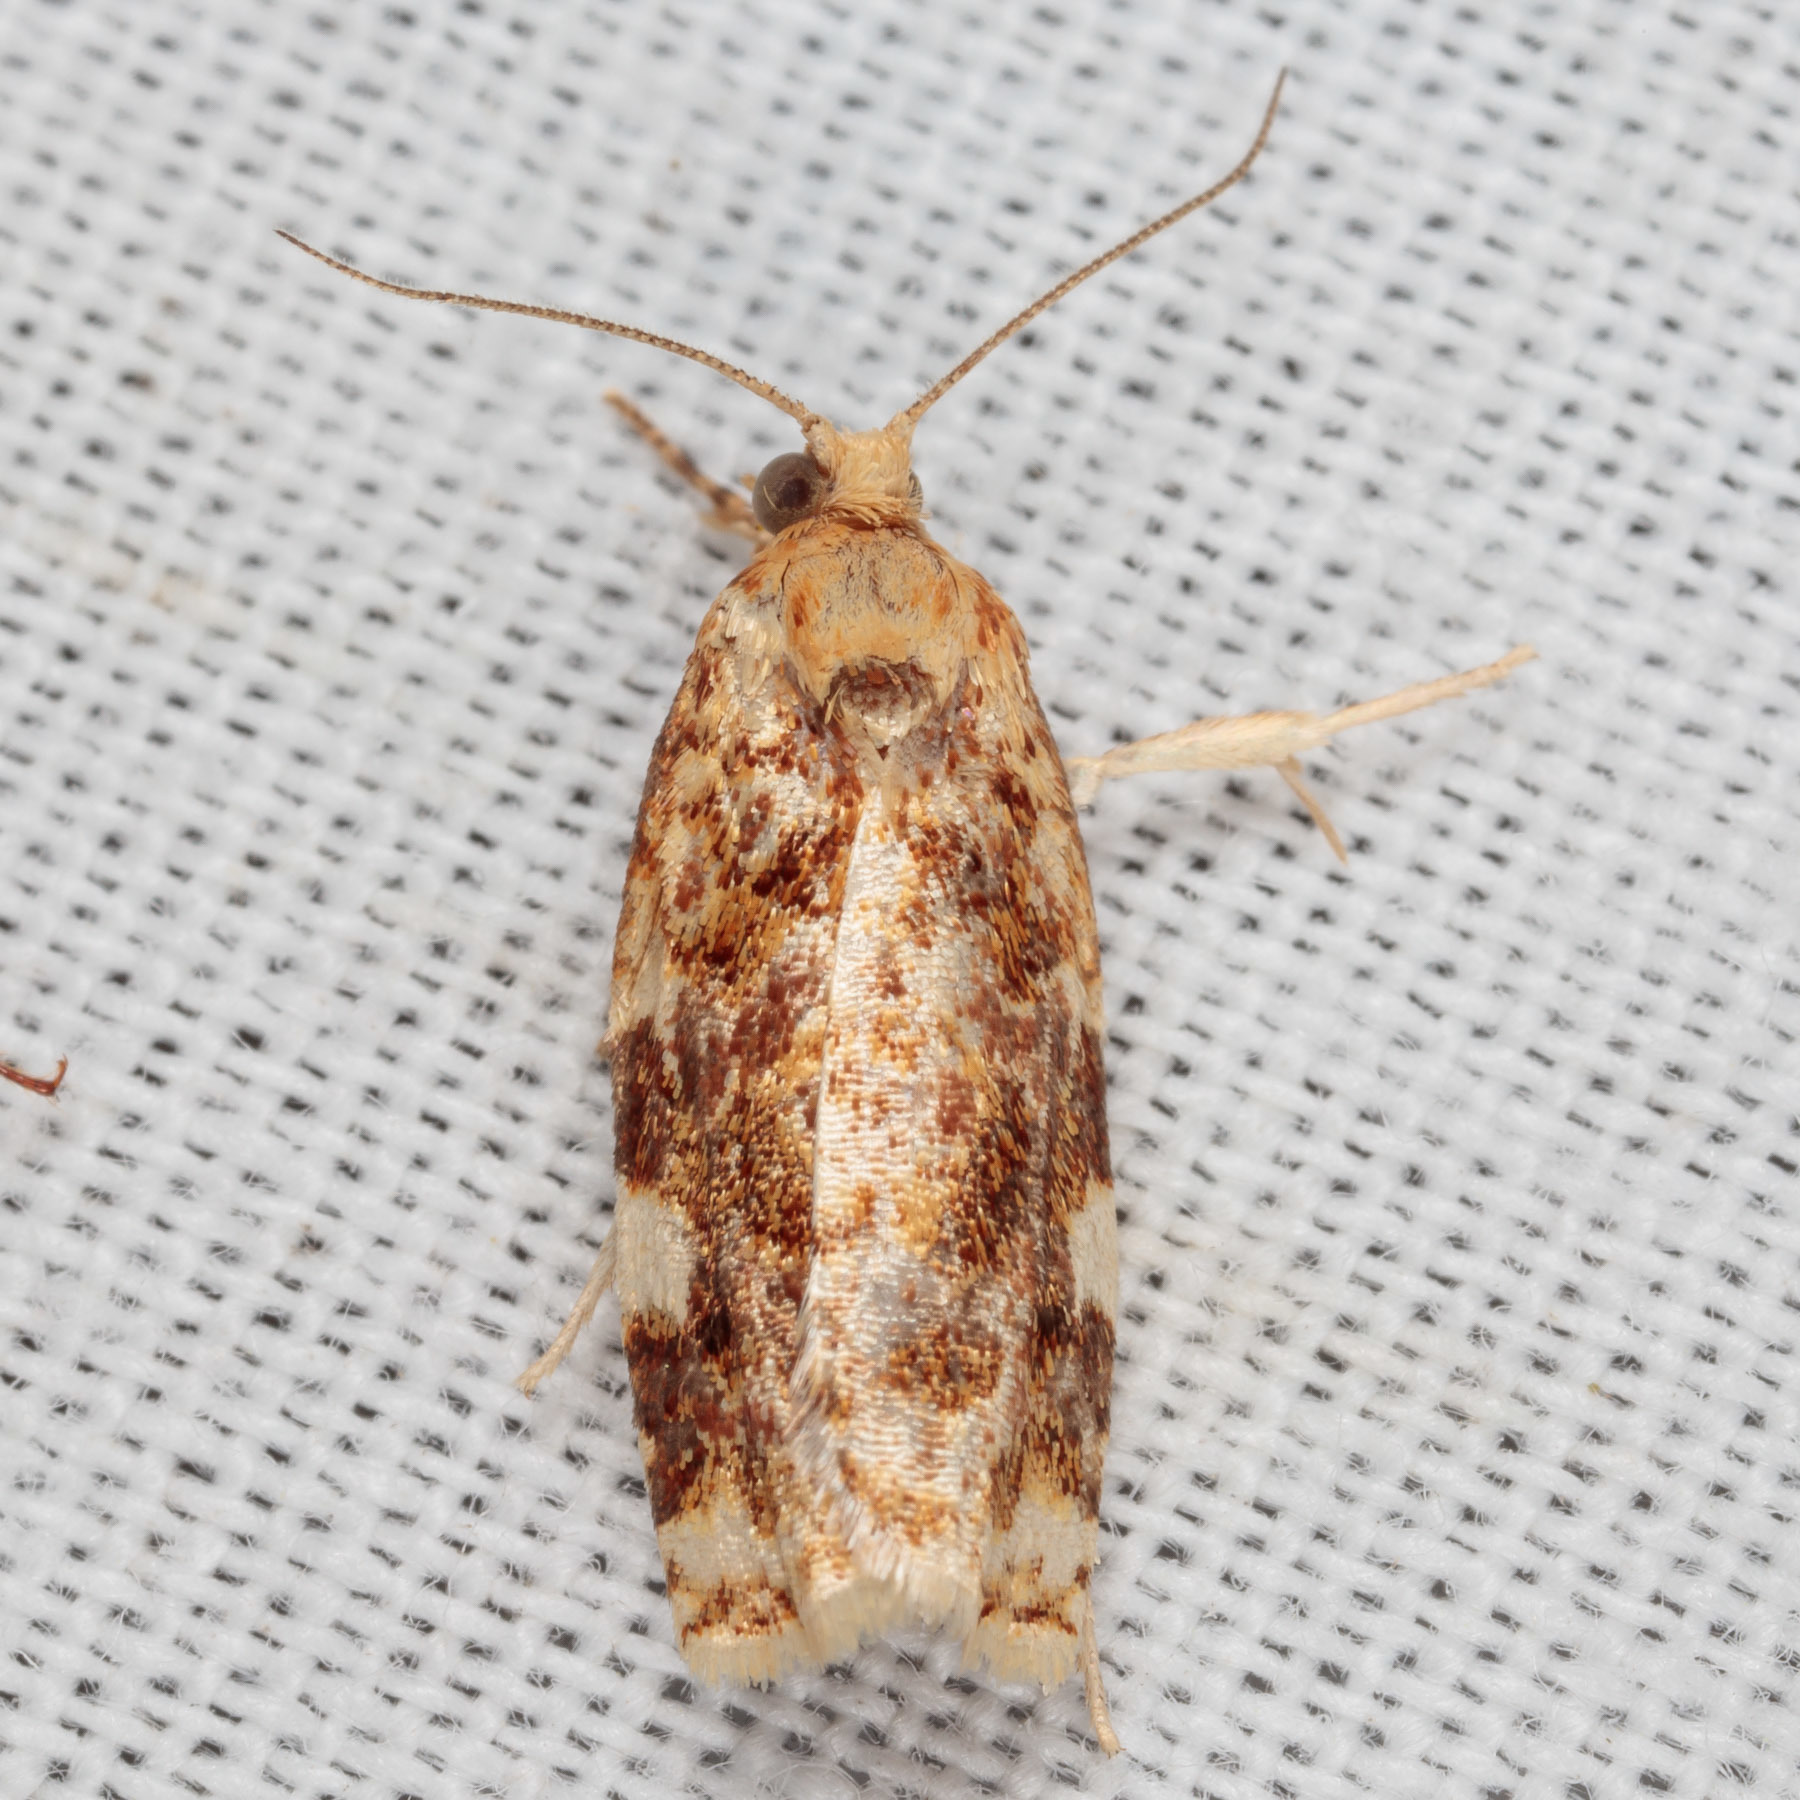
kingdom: Animalia
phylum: Arthropoda
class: Insecta
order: Lepidoptera
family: Tortricidae
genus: Archips
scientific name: Archips argyrospila
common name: Fruit-tree leafroller moth
